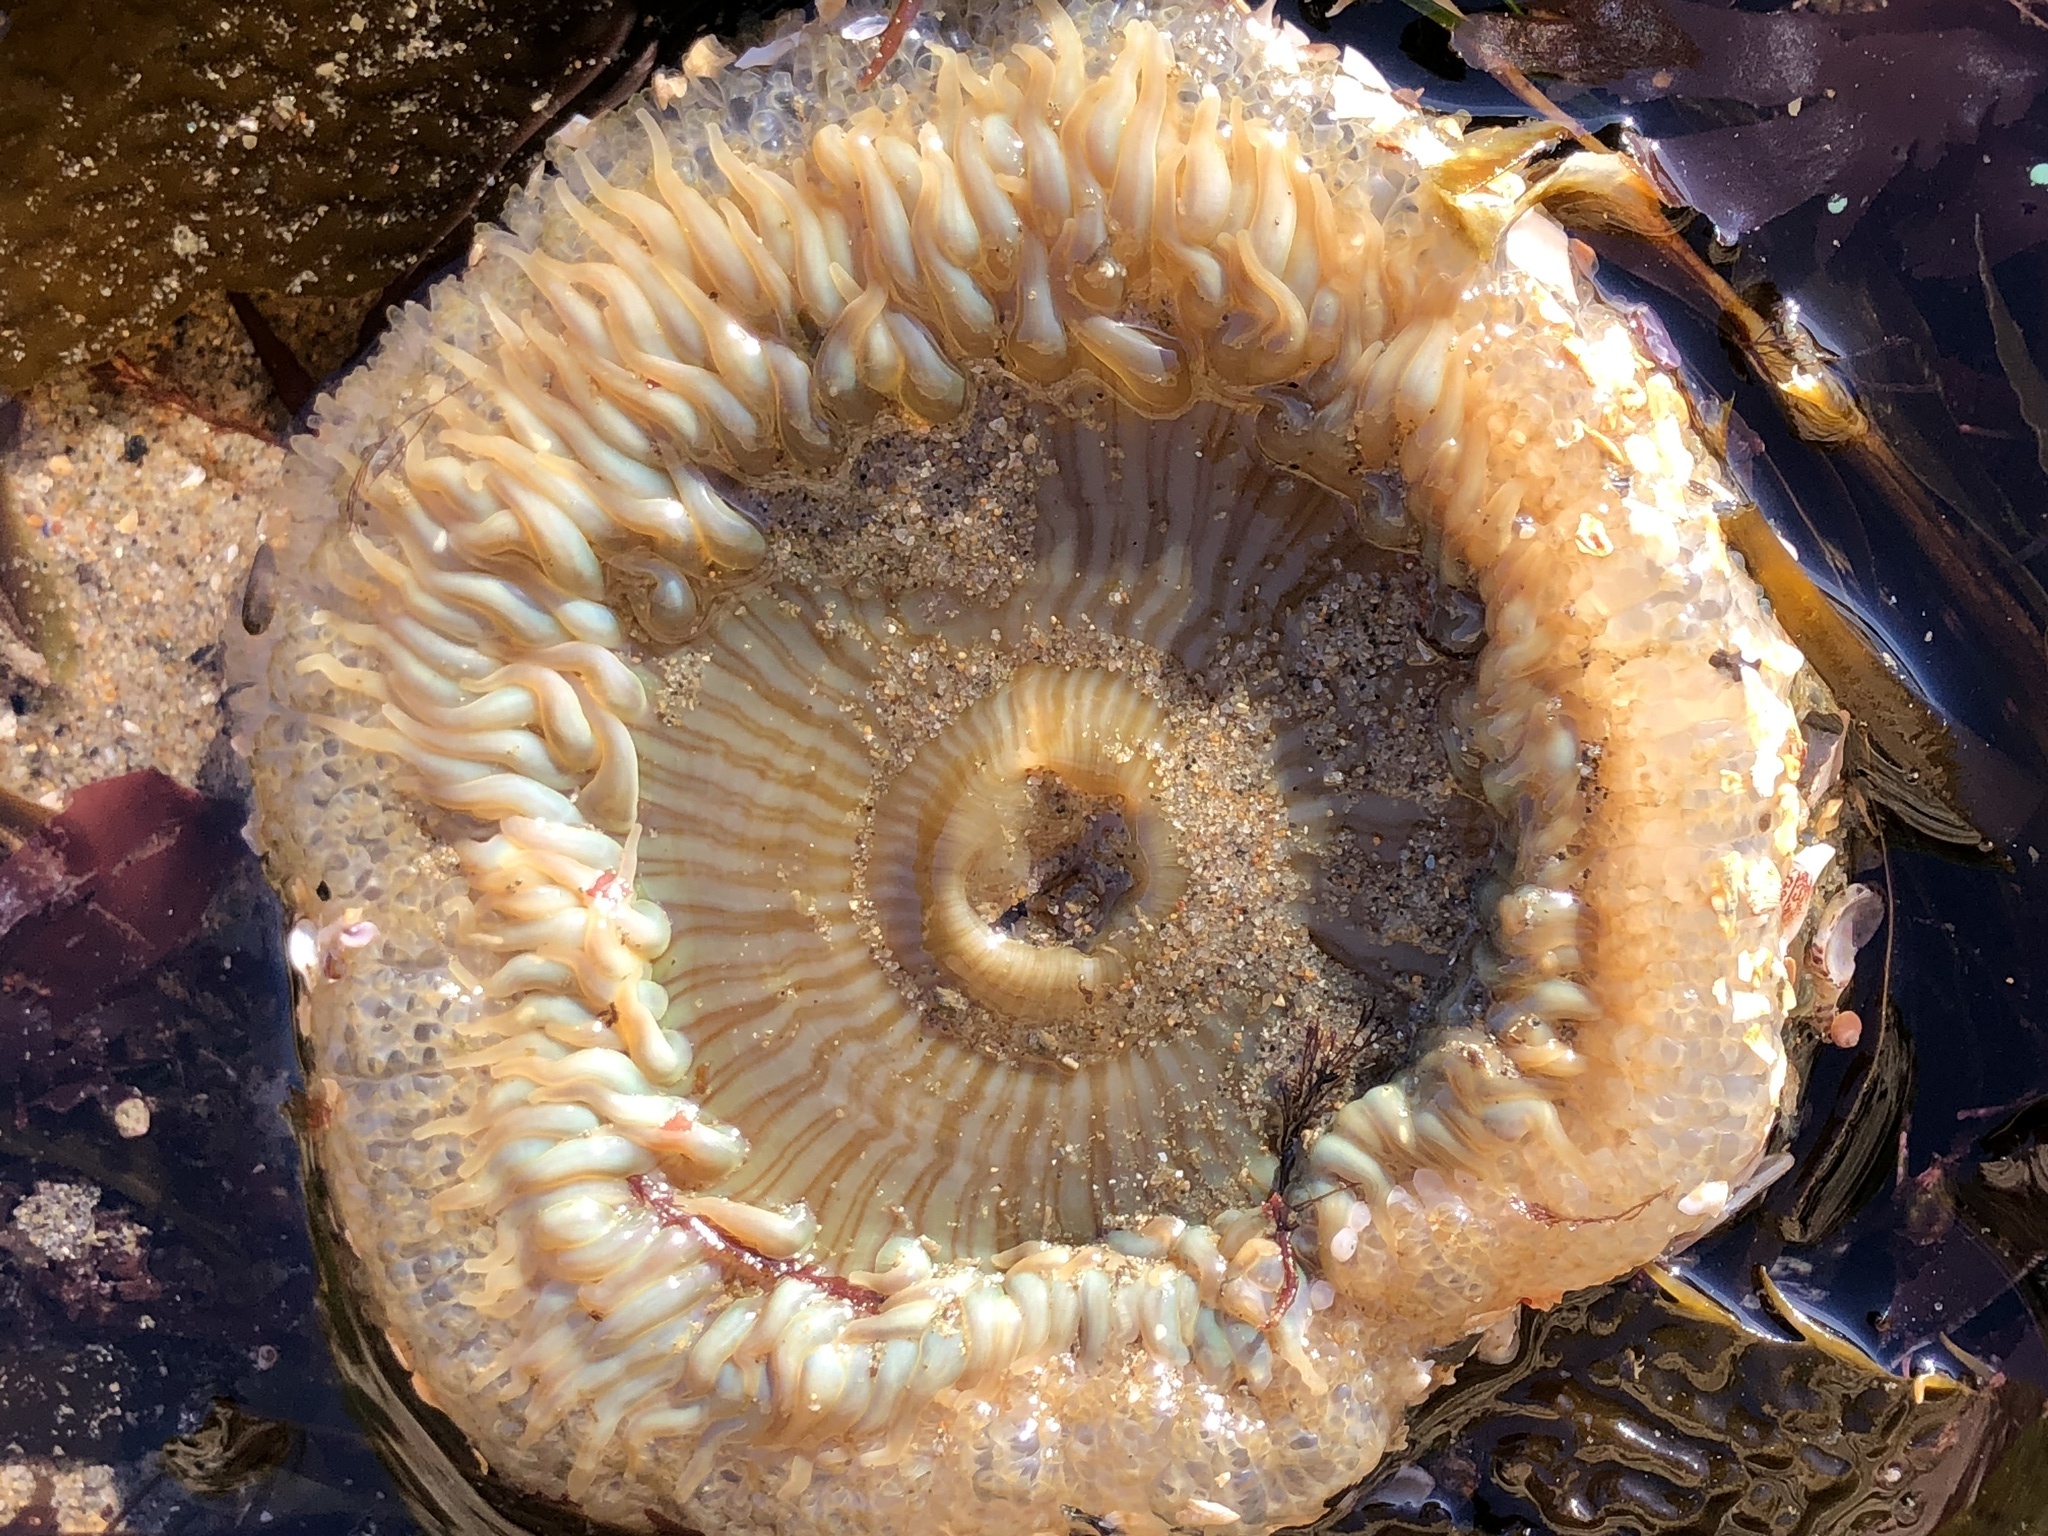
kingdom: Animalia
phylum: Cnidaria
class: Anthozoa
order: Actiniaria
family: Actiniidae
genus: Anthopleura
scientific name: Anthopleura sola
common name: Sun anemone
